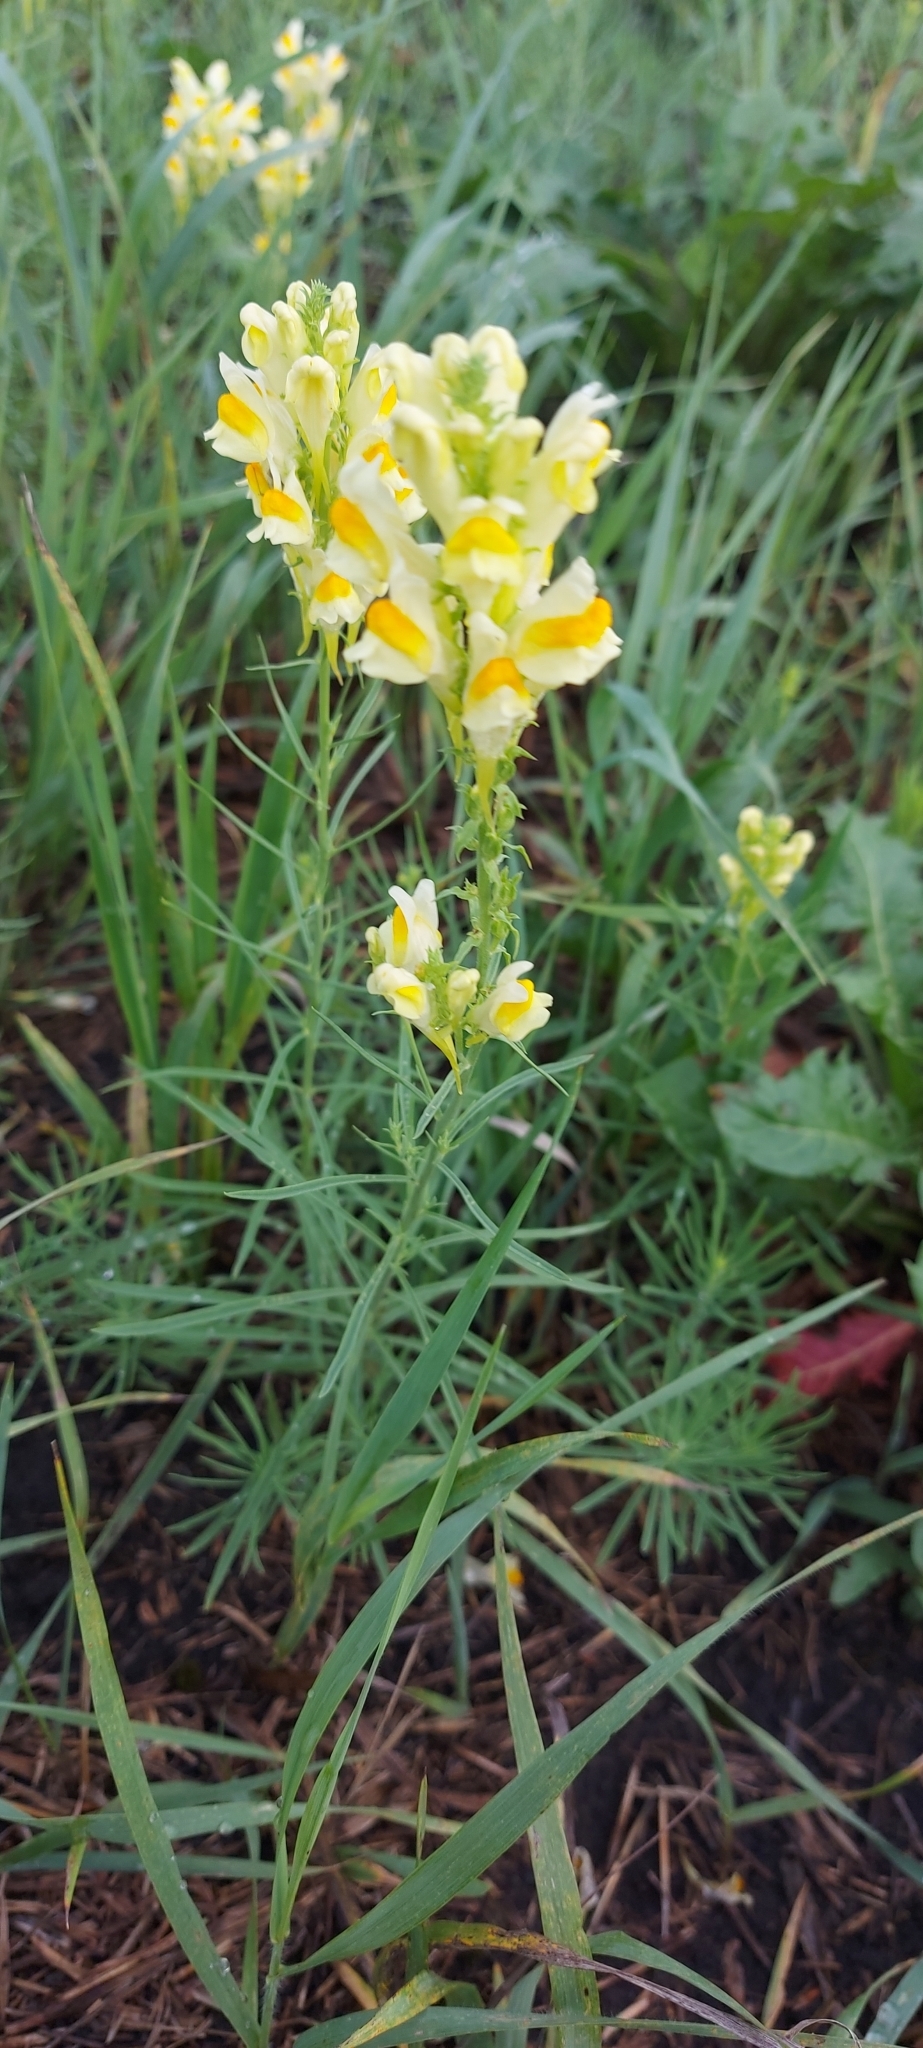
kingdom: Plantae
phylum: Tracheophyta
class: Magnoliopsida
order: Lamiales
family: Plantaginaceae
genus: Linaria
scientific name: Linaria vulgaris
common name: Butter and eggs
